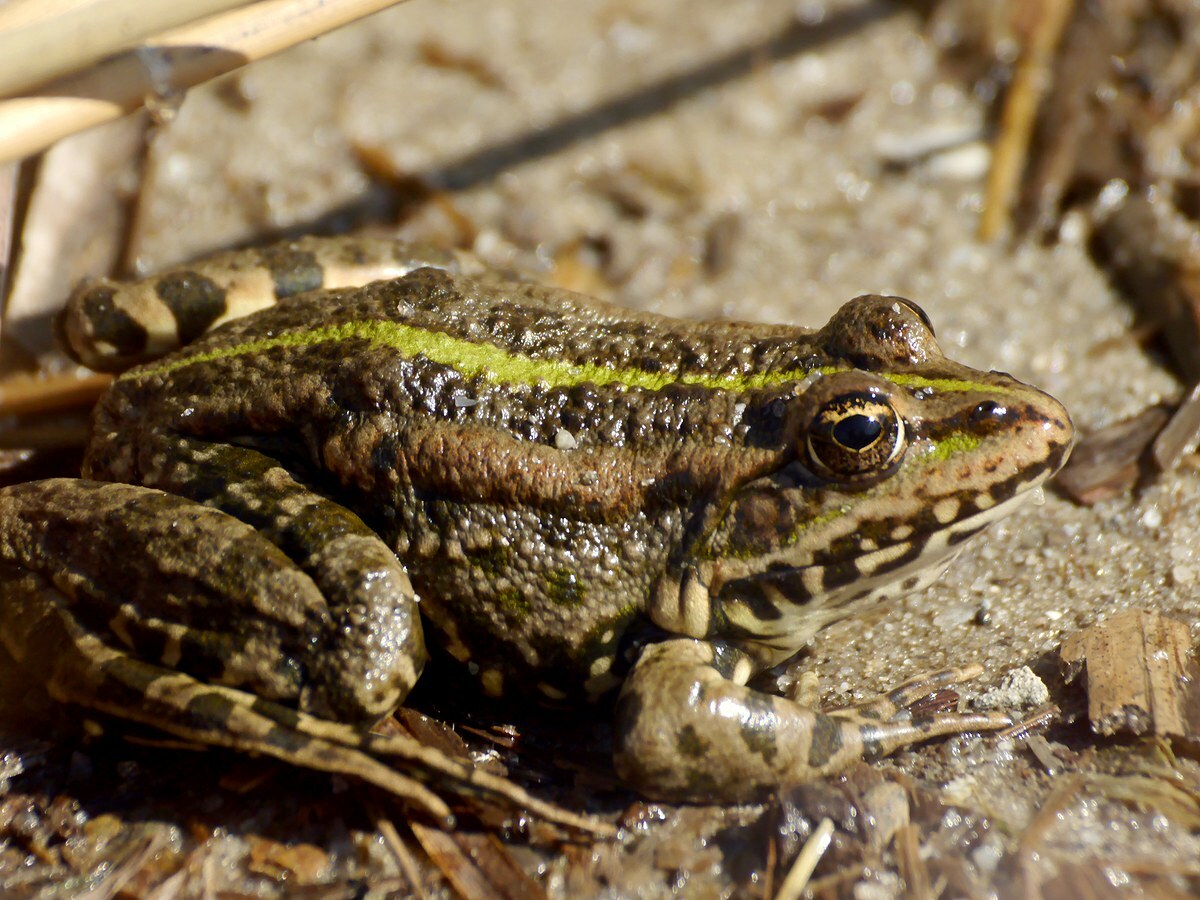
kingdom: Animalia
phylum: Chordata
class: Amphibia
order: Anura
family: Ranidae
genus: Pelophylax
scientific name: Pelophylax ridibundus
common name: Marsh frog
